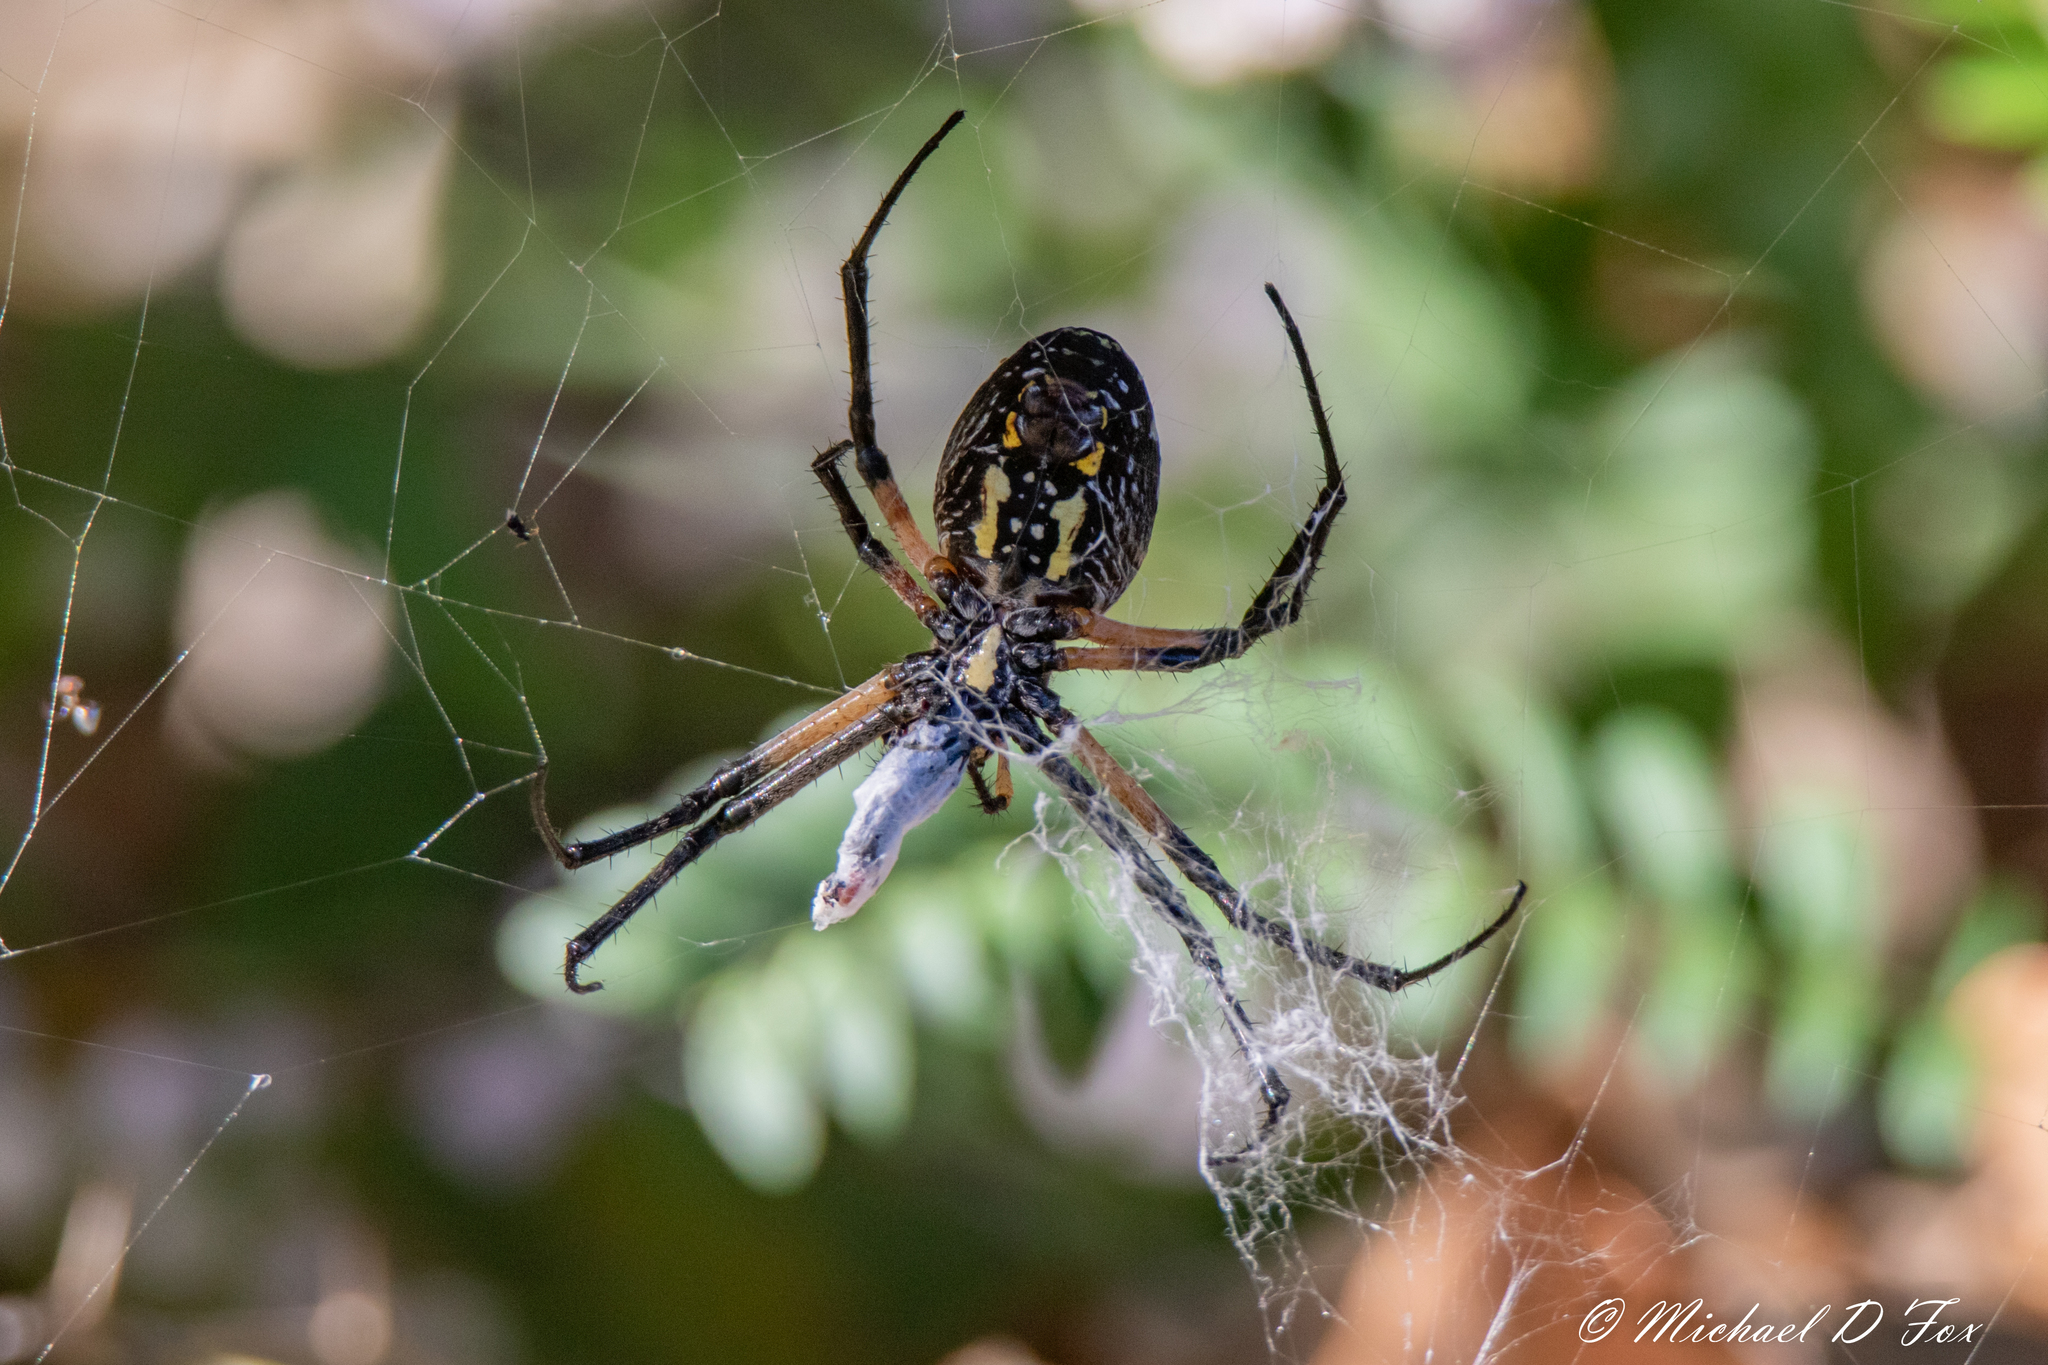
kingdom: Animalia
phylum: Arthropoda
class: Arachnida
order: Araneae
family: Araneidae
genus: Argiope
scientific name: Argiope aurantia
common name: Orb weavers
